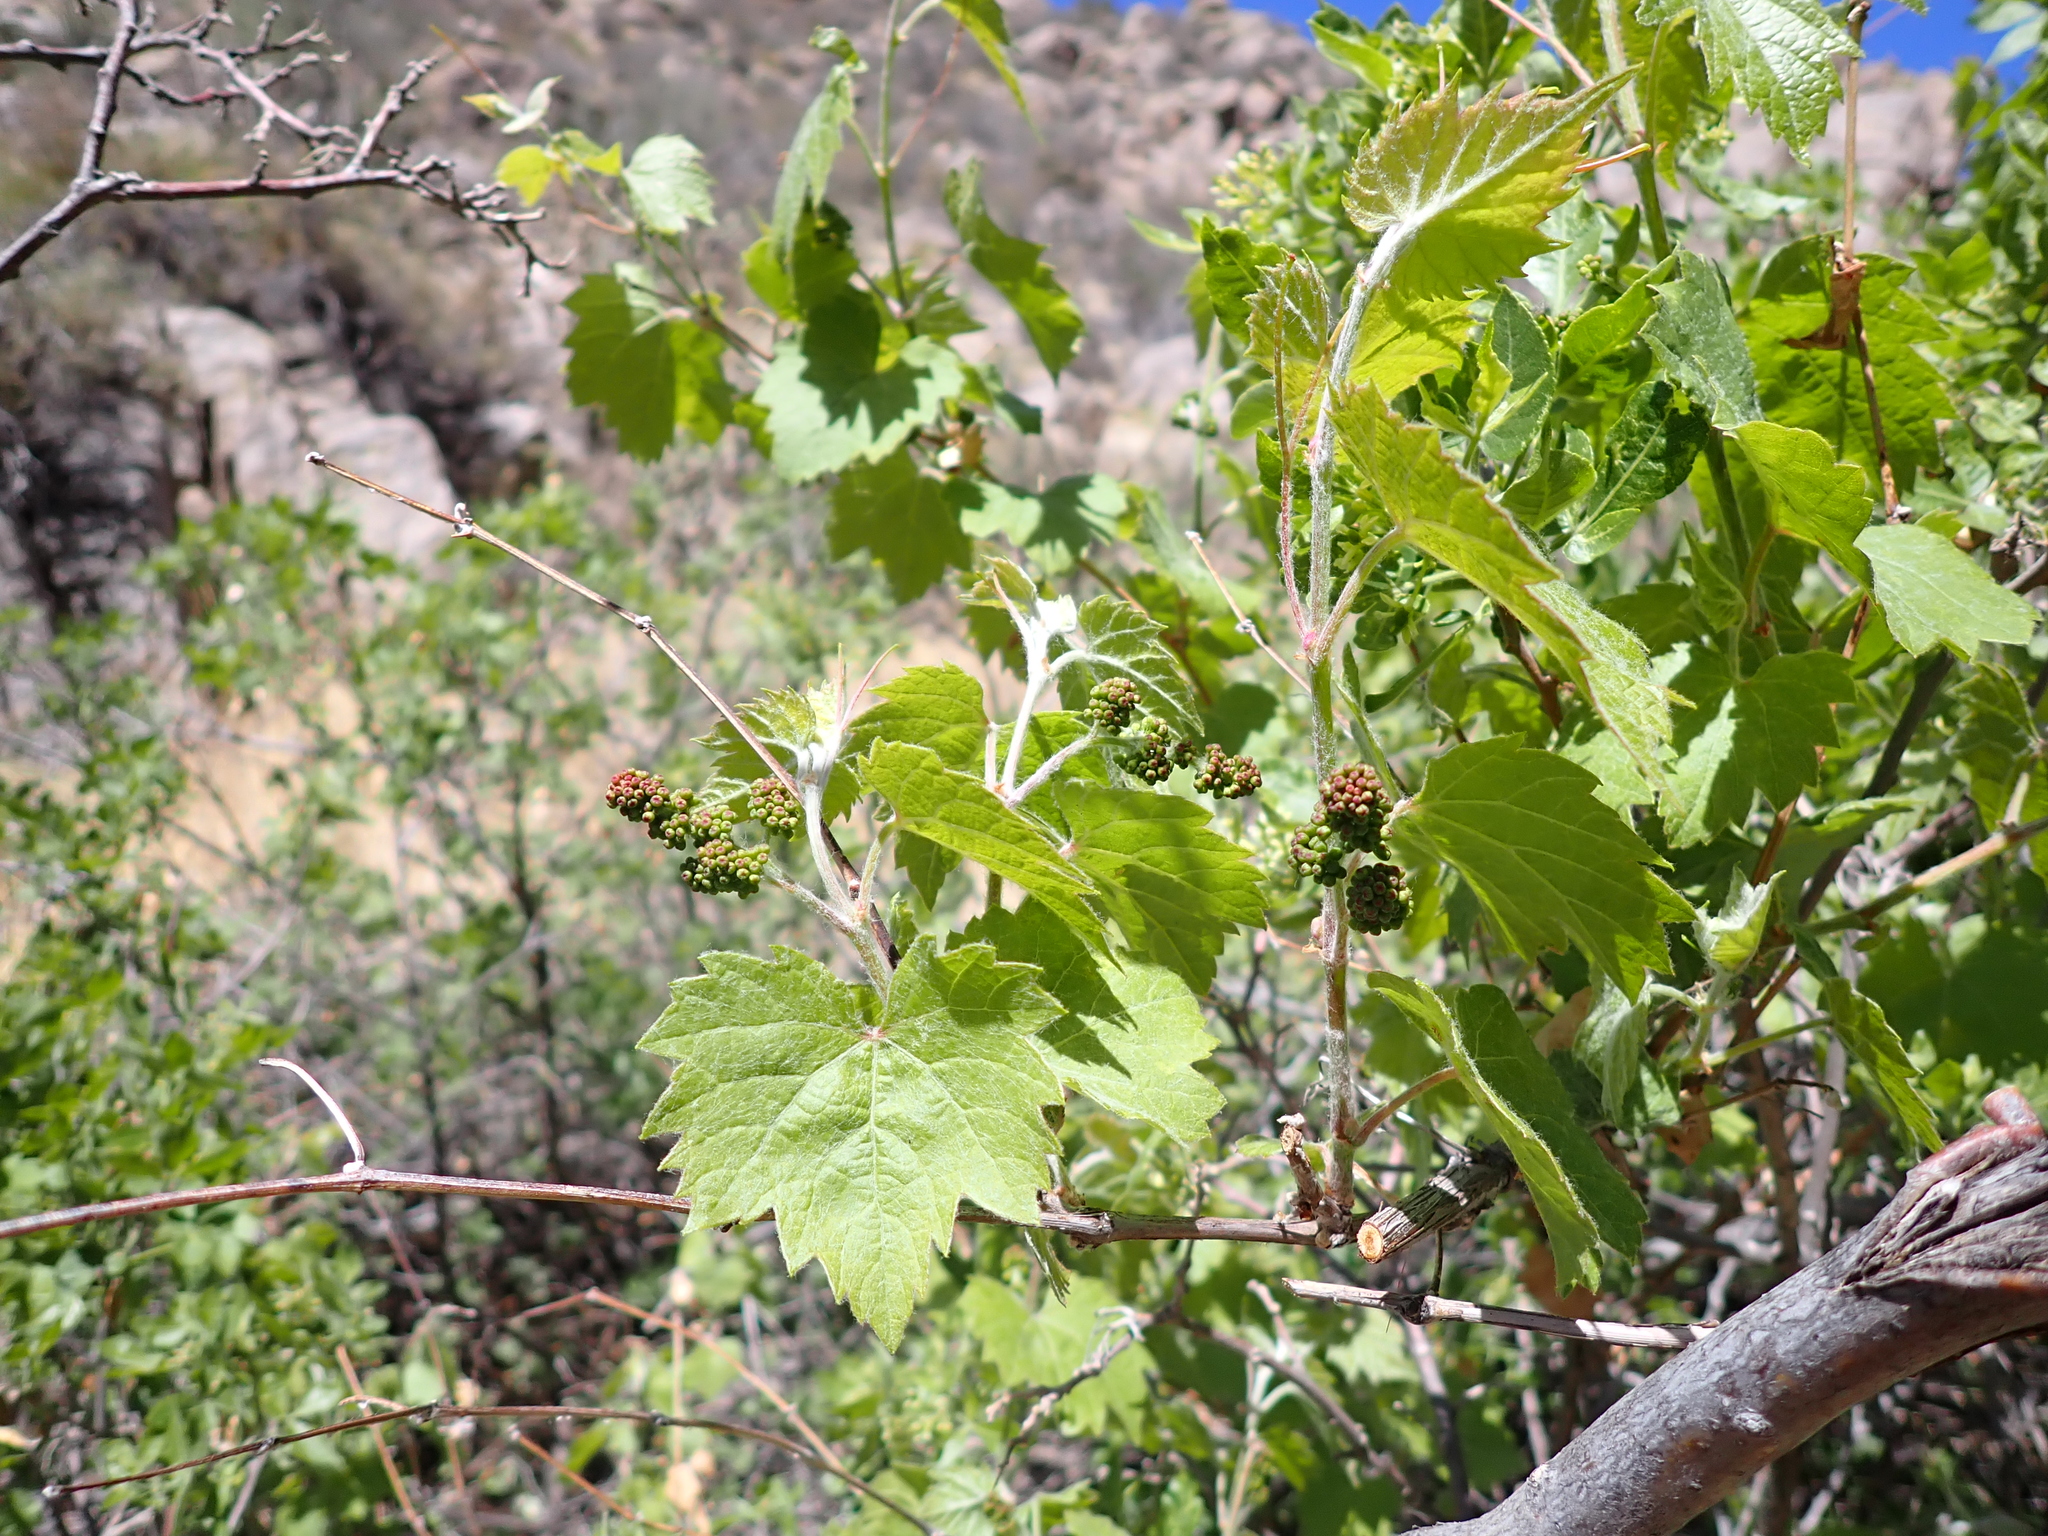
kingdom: Plantae
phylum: Tracheophyta
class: Magnoliopsida
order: Vitales
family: Vitaceae
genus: Vitis
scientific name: Vitis arizonica
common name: Canyon grape
